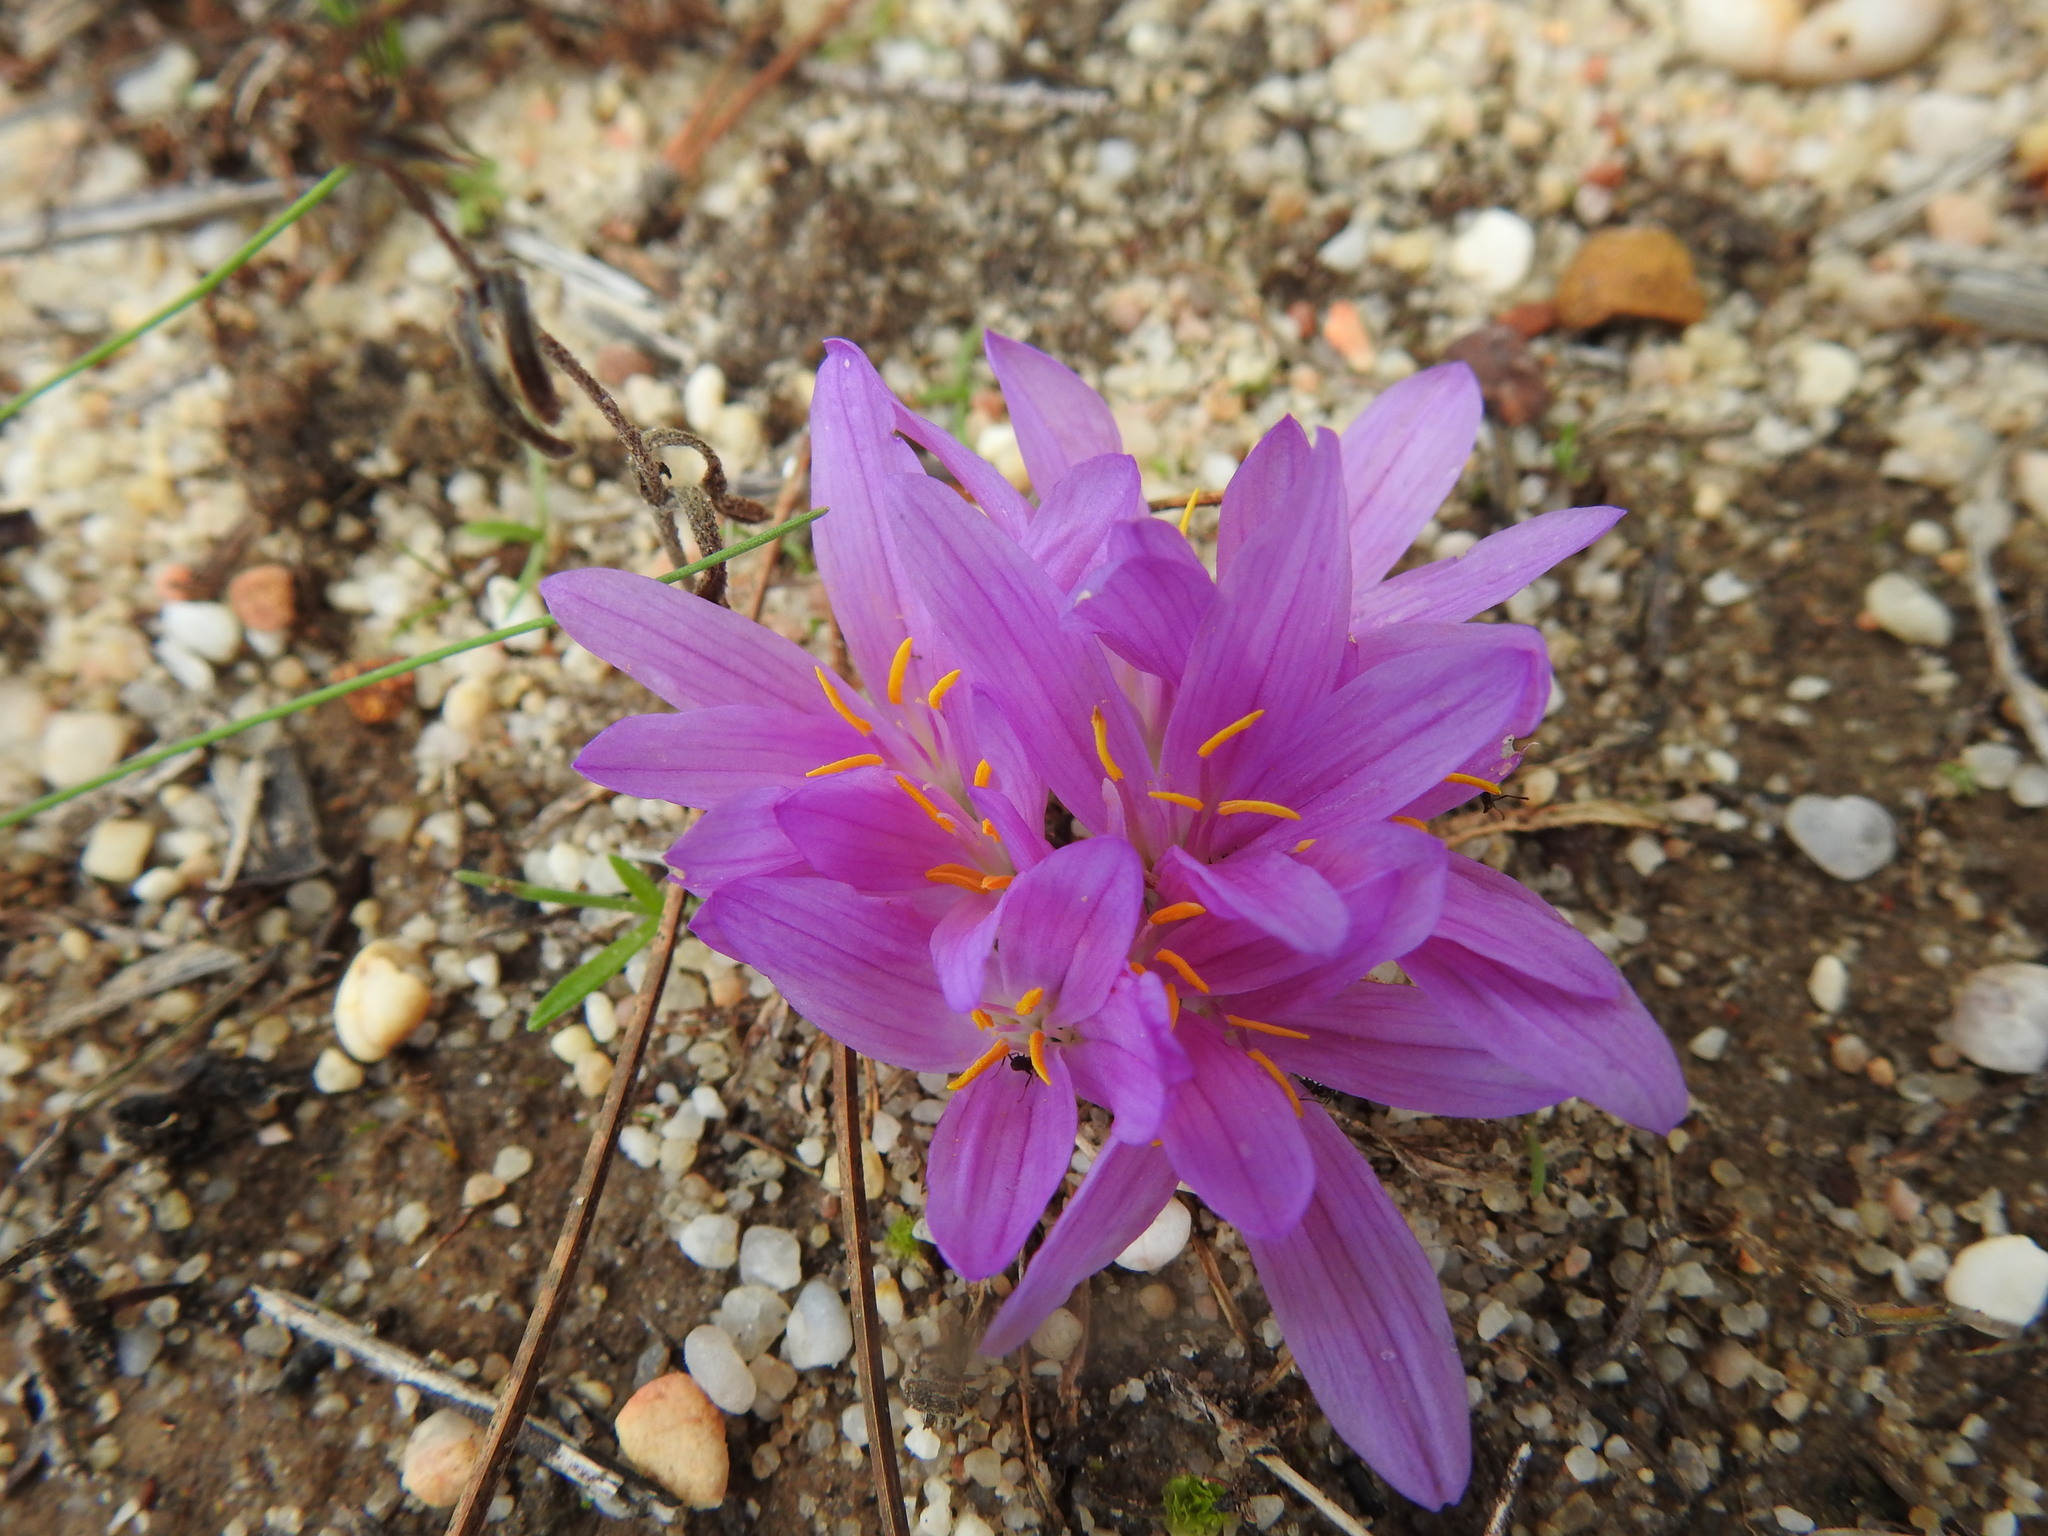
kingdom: Plantae
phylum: Tracheophyta
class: Liliopsida
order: Liliales
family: Colchicaceae
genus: Colchicum
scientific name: Colchicum filifolium
